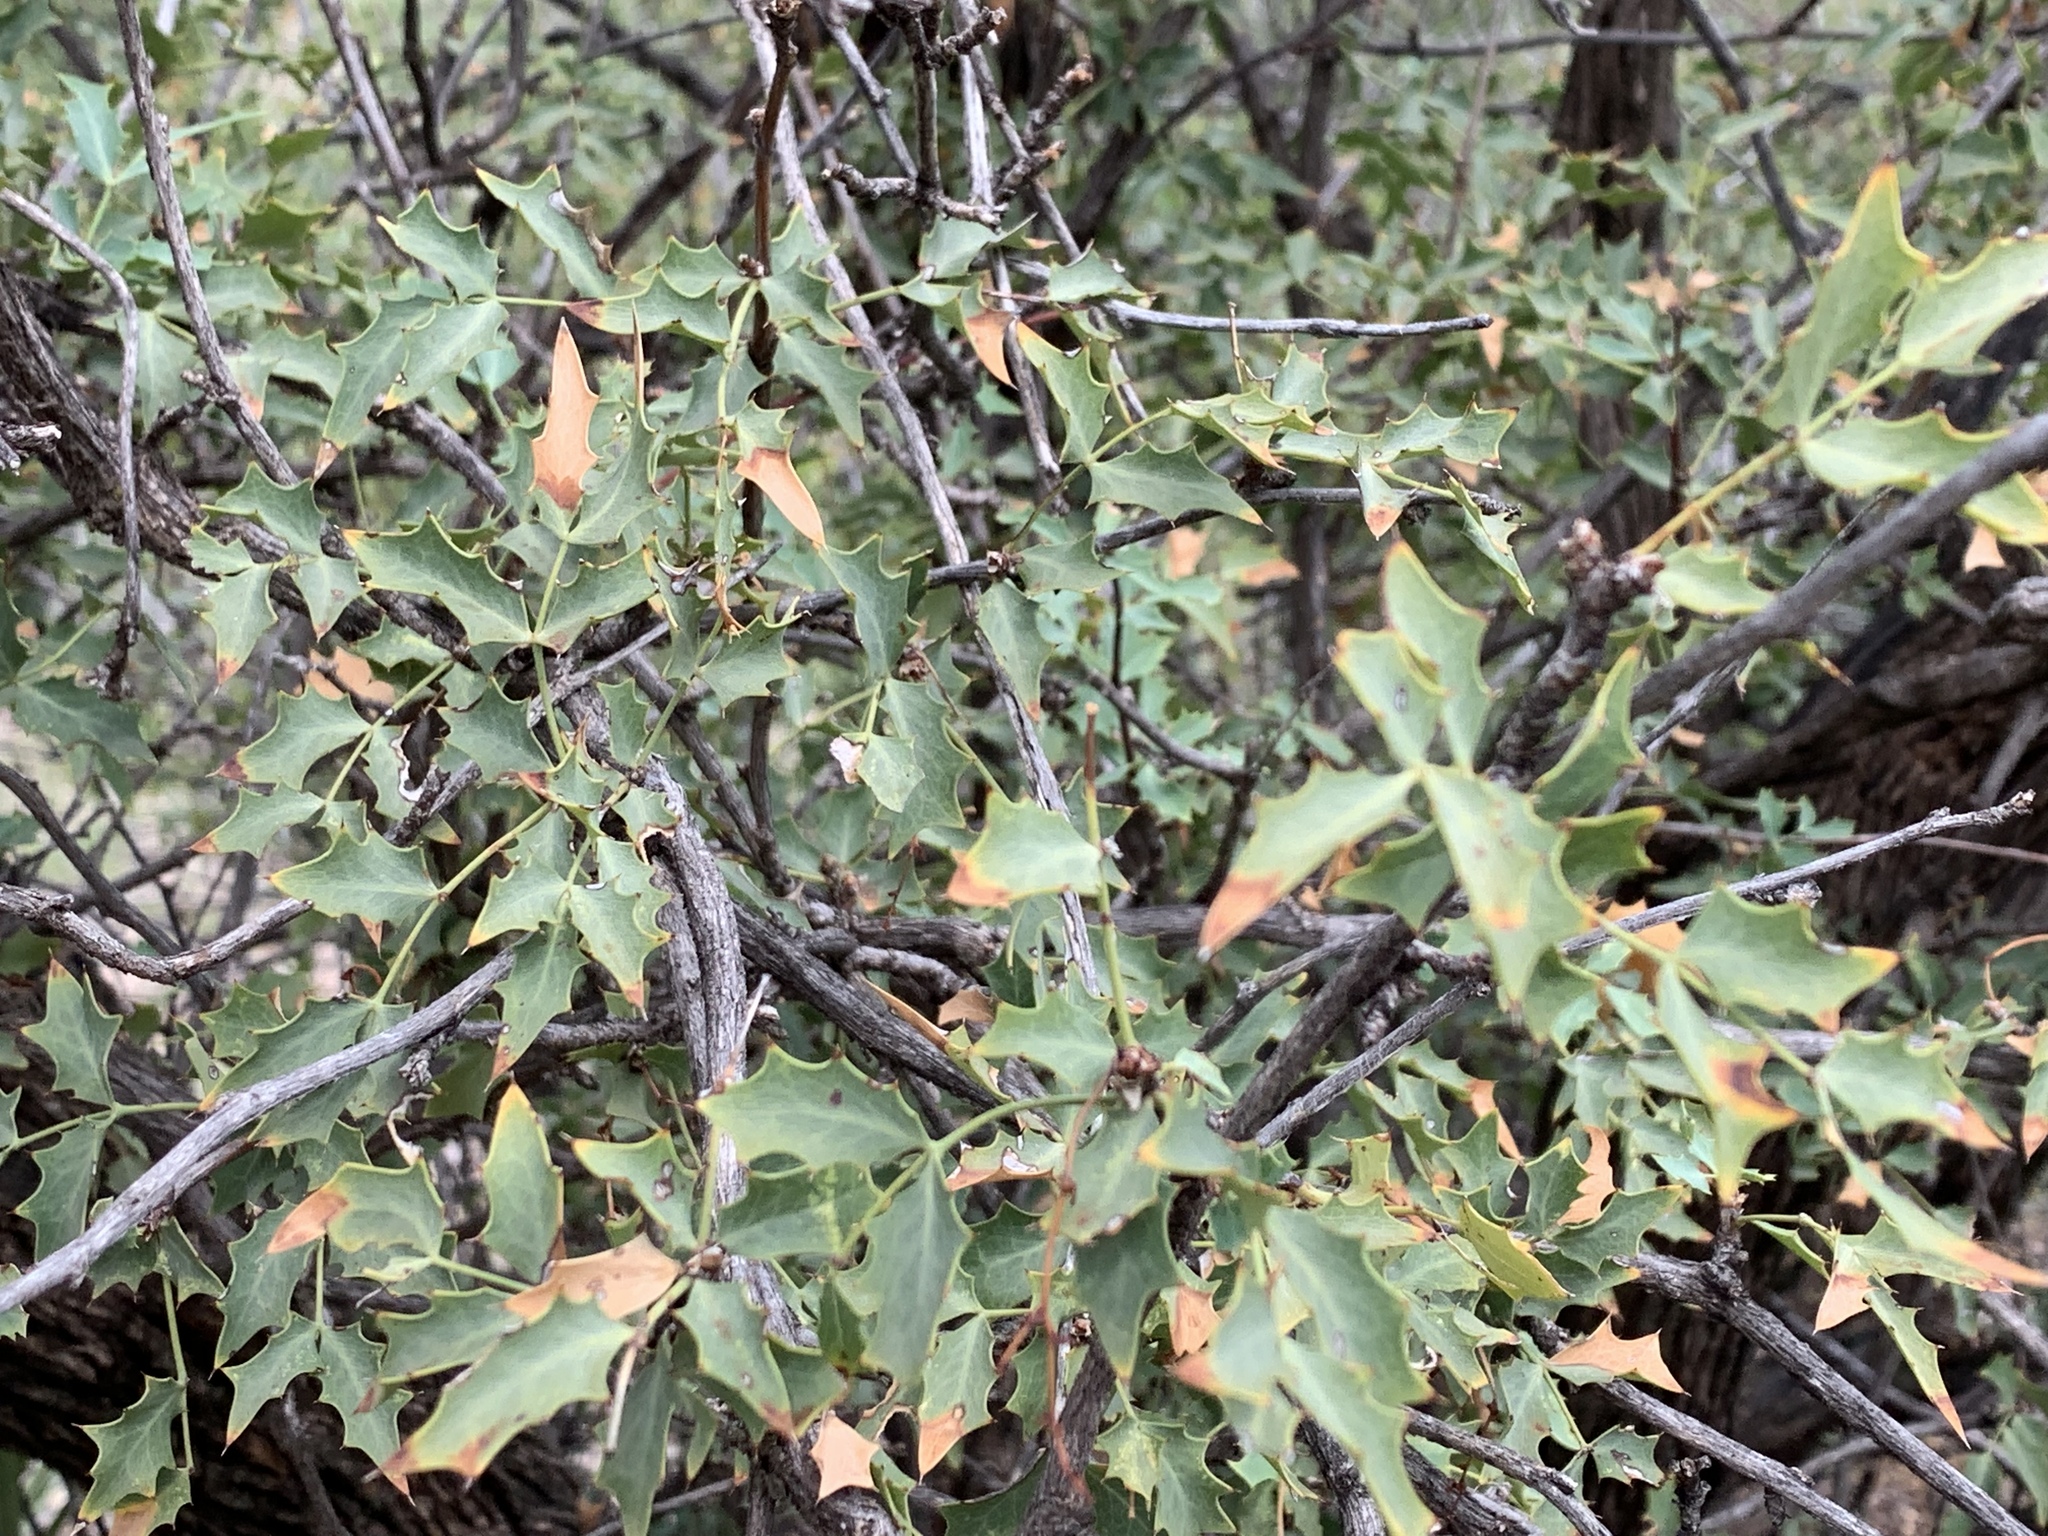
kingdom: Plantae
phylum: Tracheophyta
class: Magnoliopsida
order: Ranunculales
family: Berberidaceae
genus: Alloberberis
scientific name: Alloberberis haematocarpa
